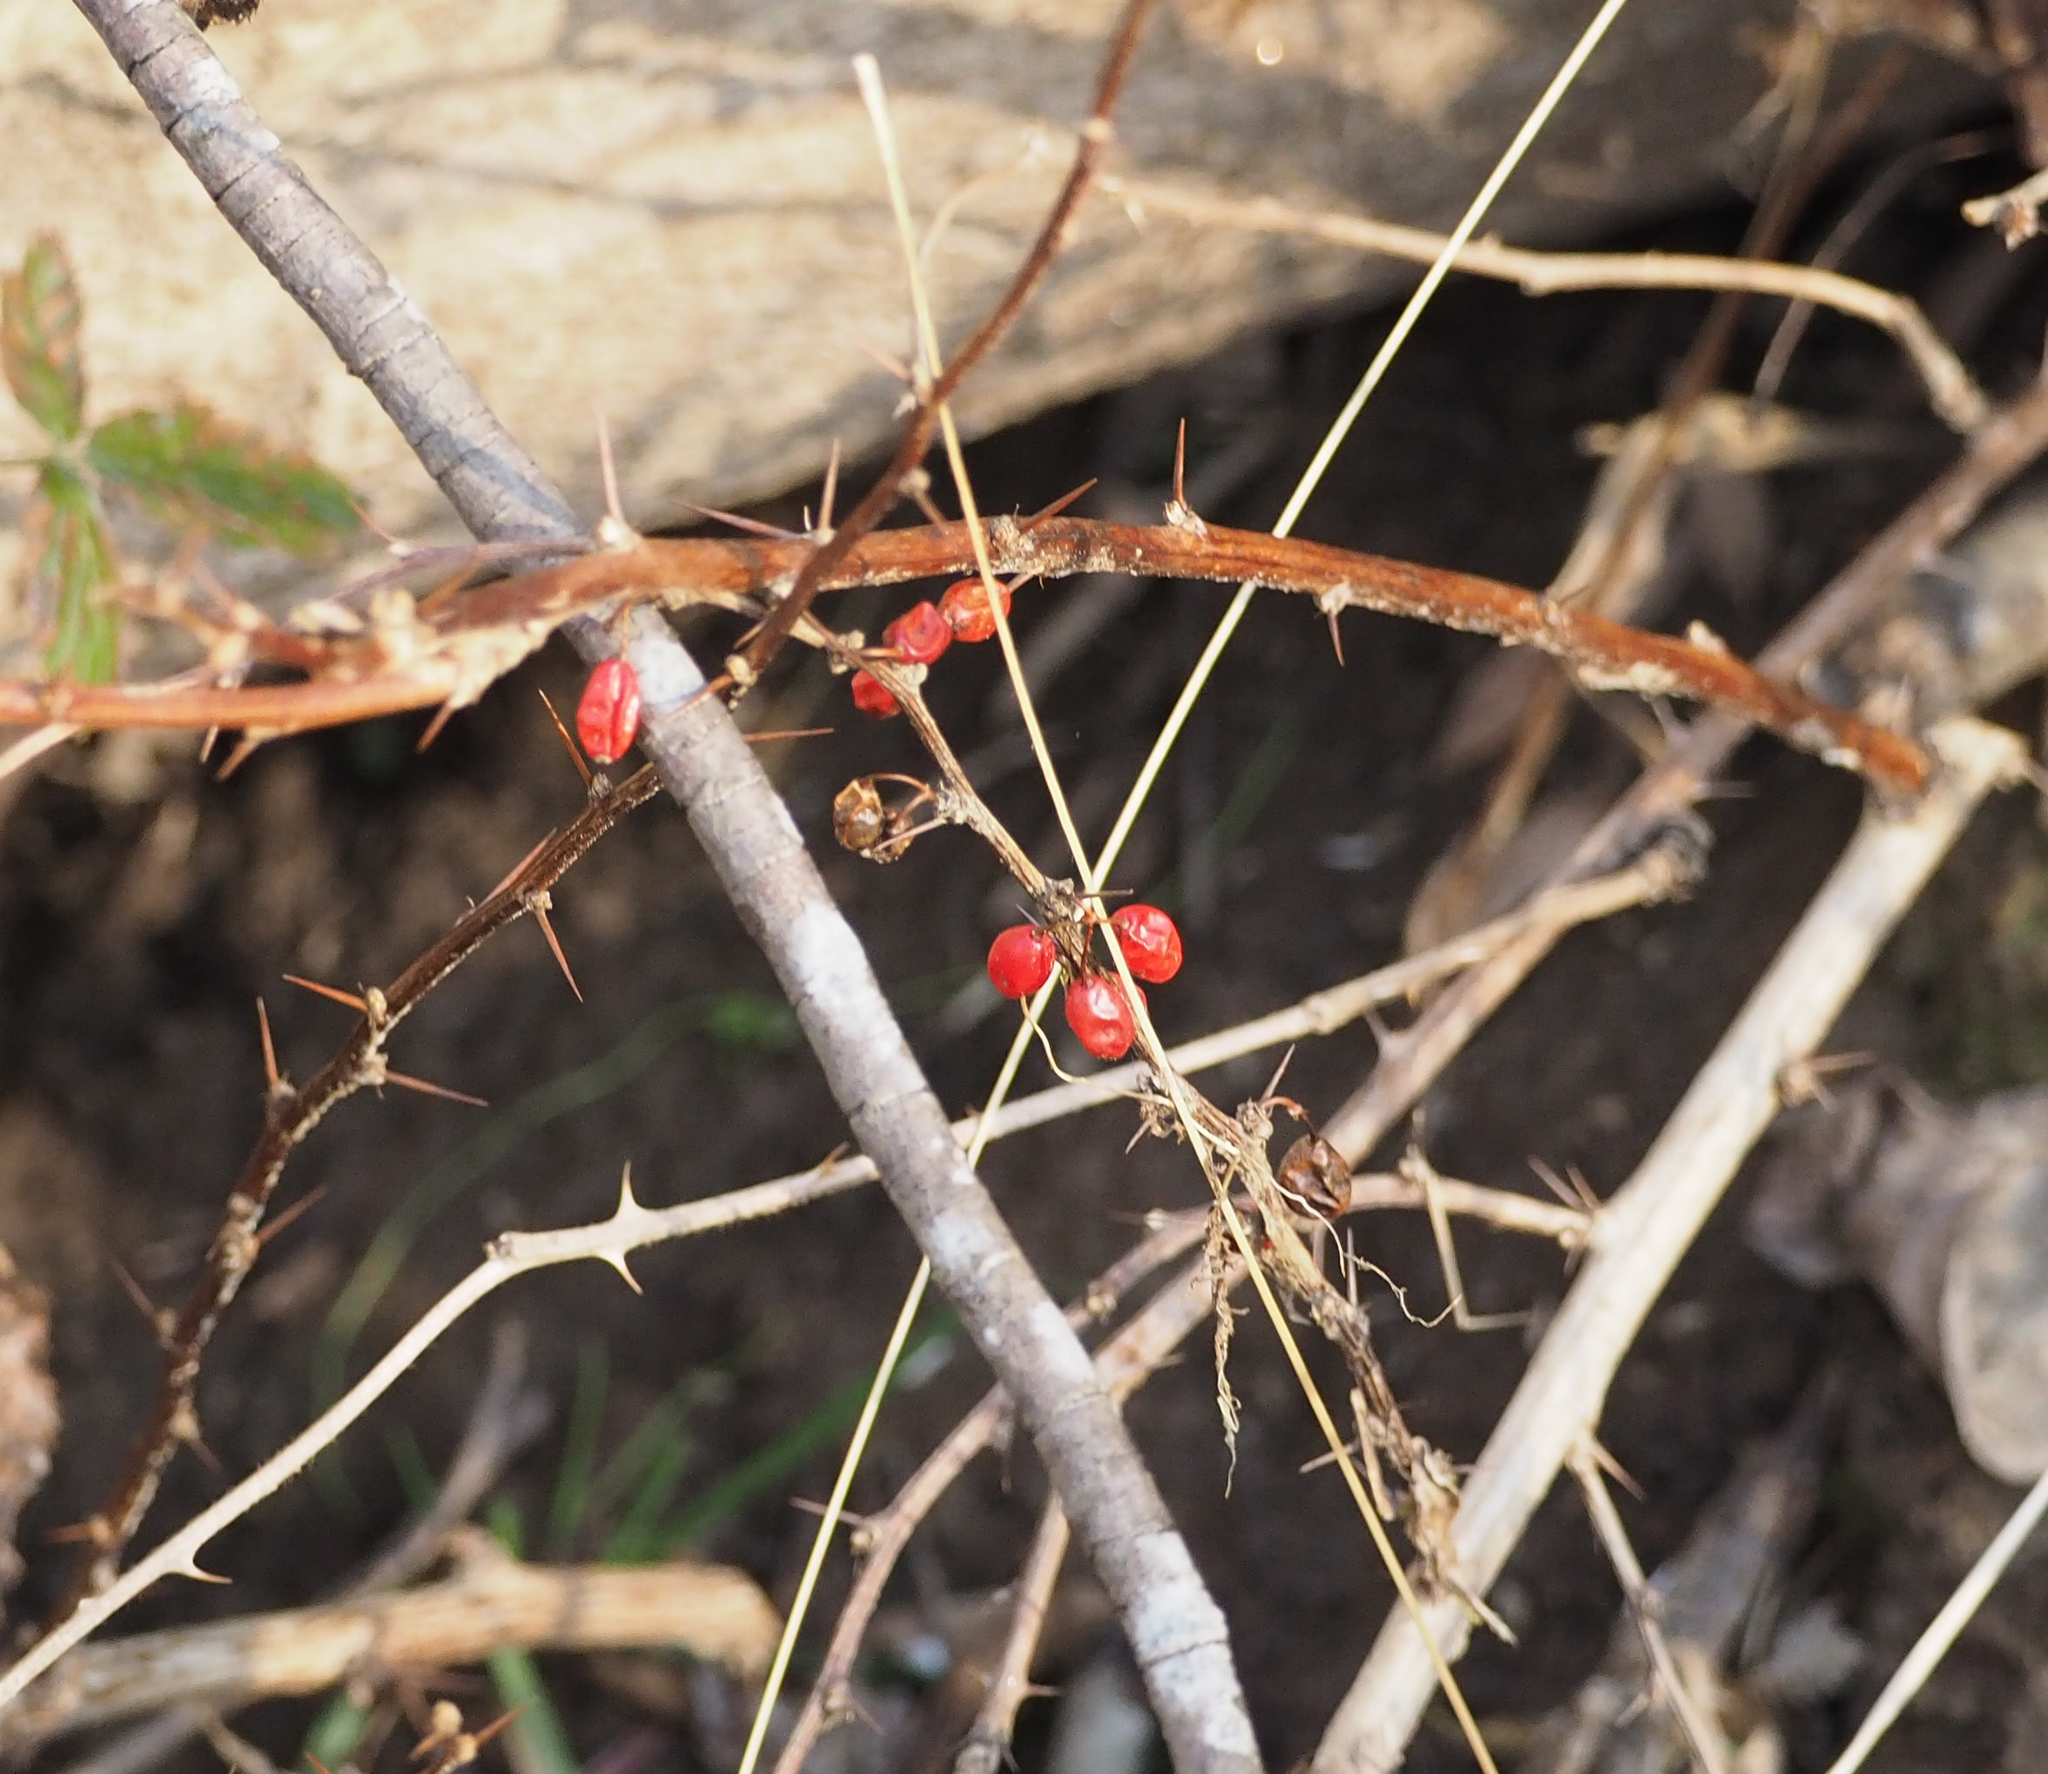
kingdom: Plantae
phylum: Tracheophyta
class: Magnoliopsida
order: Ranunculales
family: Berberidaceae
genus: Berberis
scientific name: Berberis thunbergii
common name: Japanese barberry
